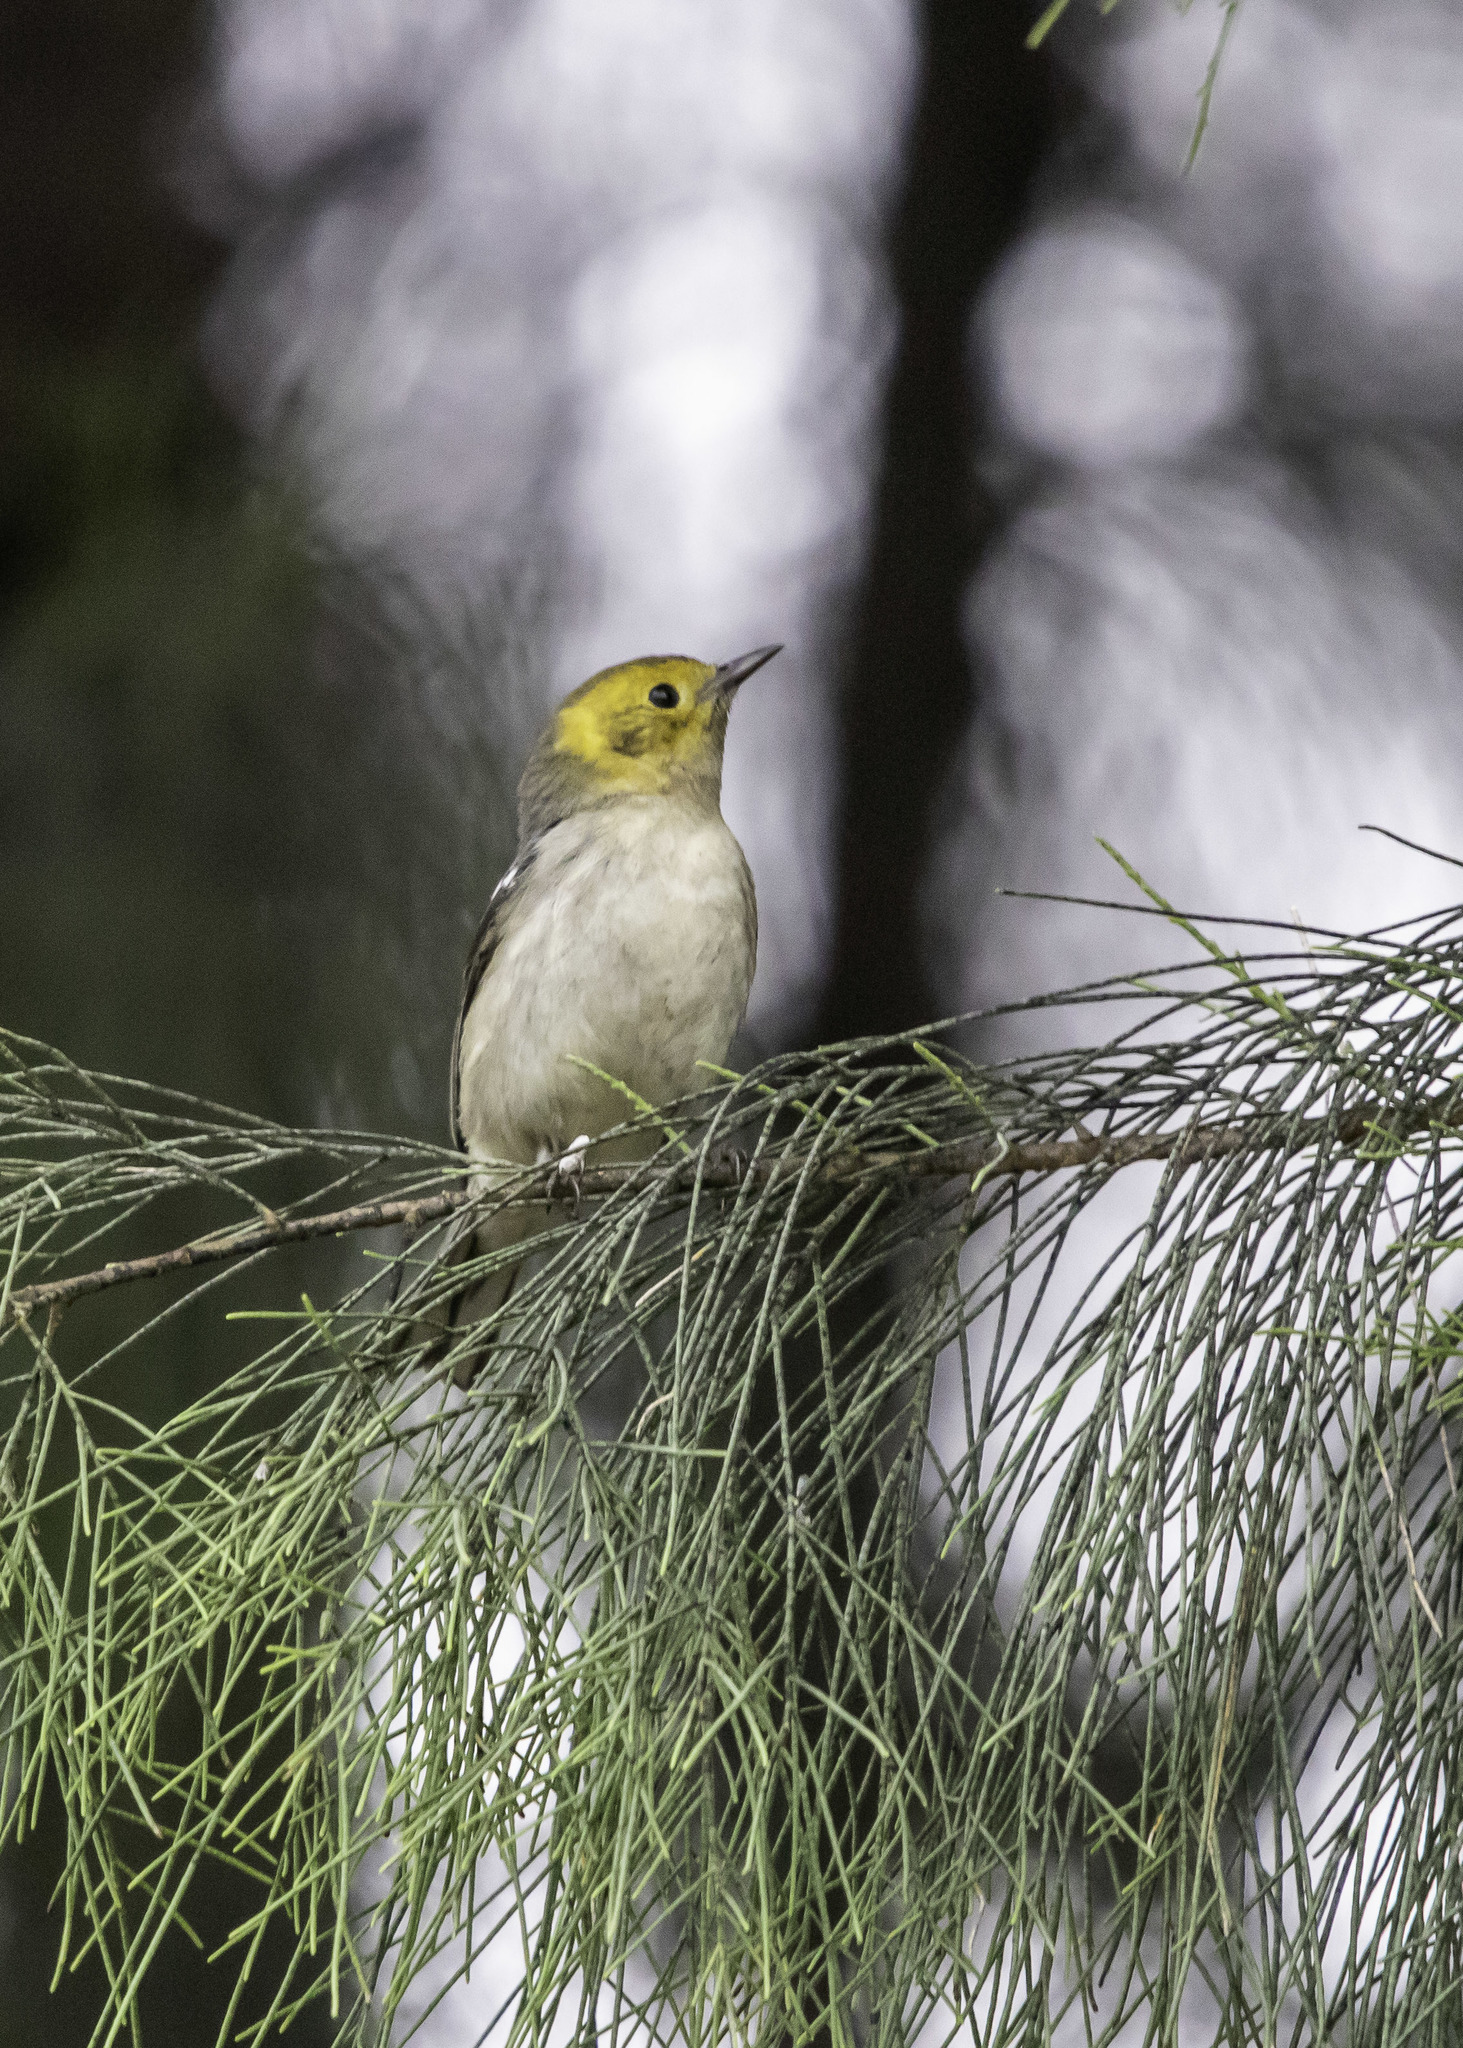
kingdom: Animalia
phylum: Chordata
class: Aves
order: Passeriformes
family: Parulidae
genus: Setophaga
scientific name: Setophaga occidentalis
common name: Hermit warbler
